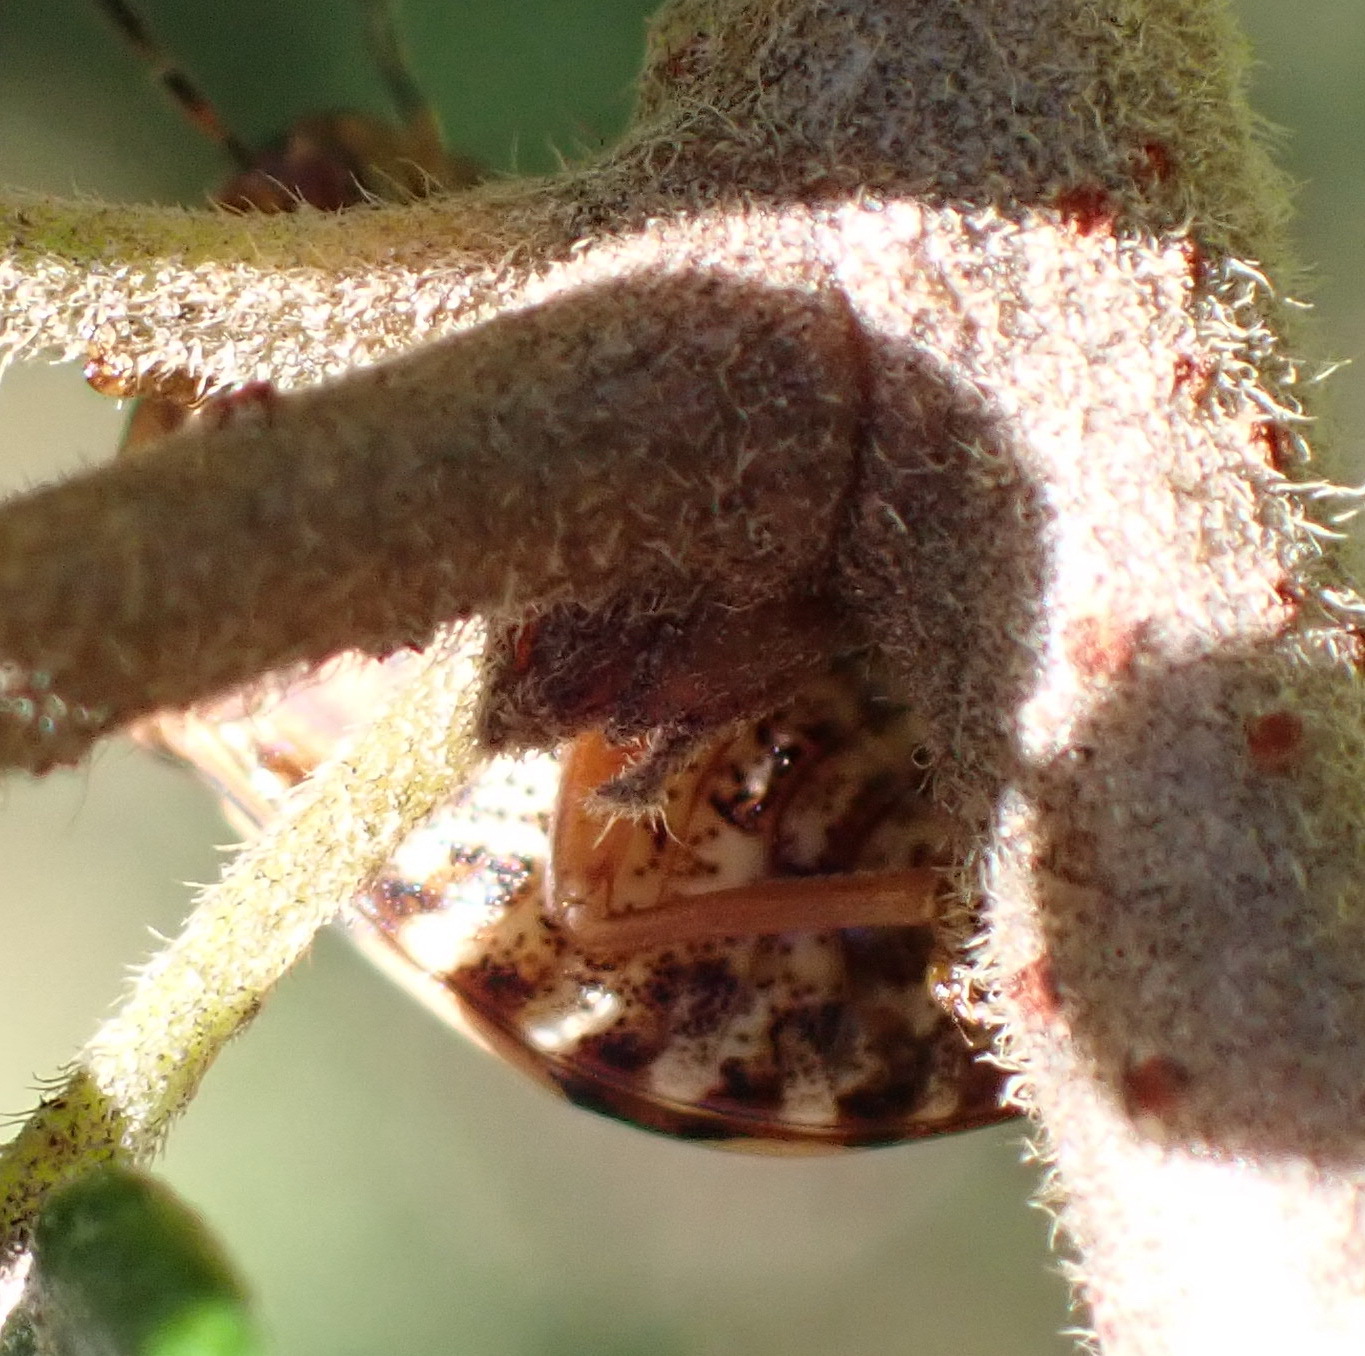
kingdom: Animalia
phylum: Arthropoda
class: Insecta
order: Hemiptera
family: Scutelleridae
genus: Sphaerocoris
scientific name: Sphaerocoris
